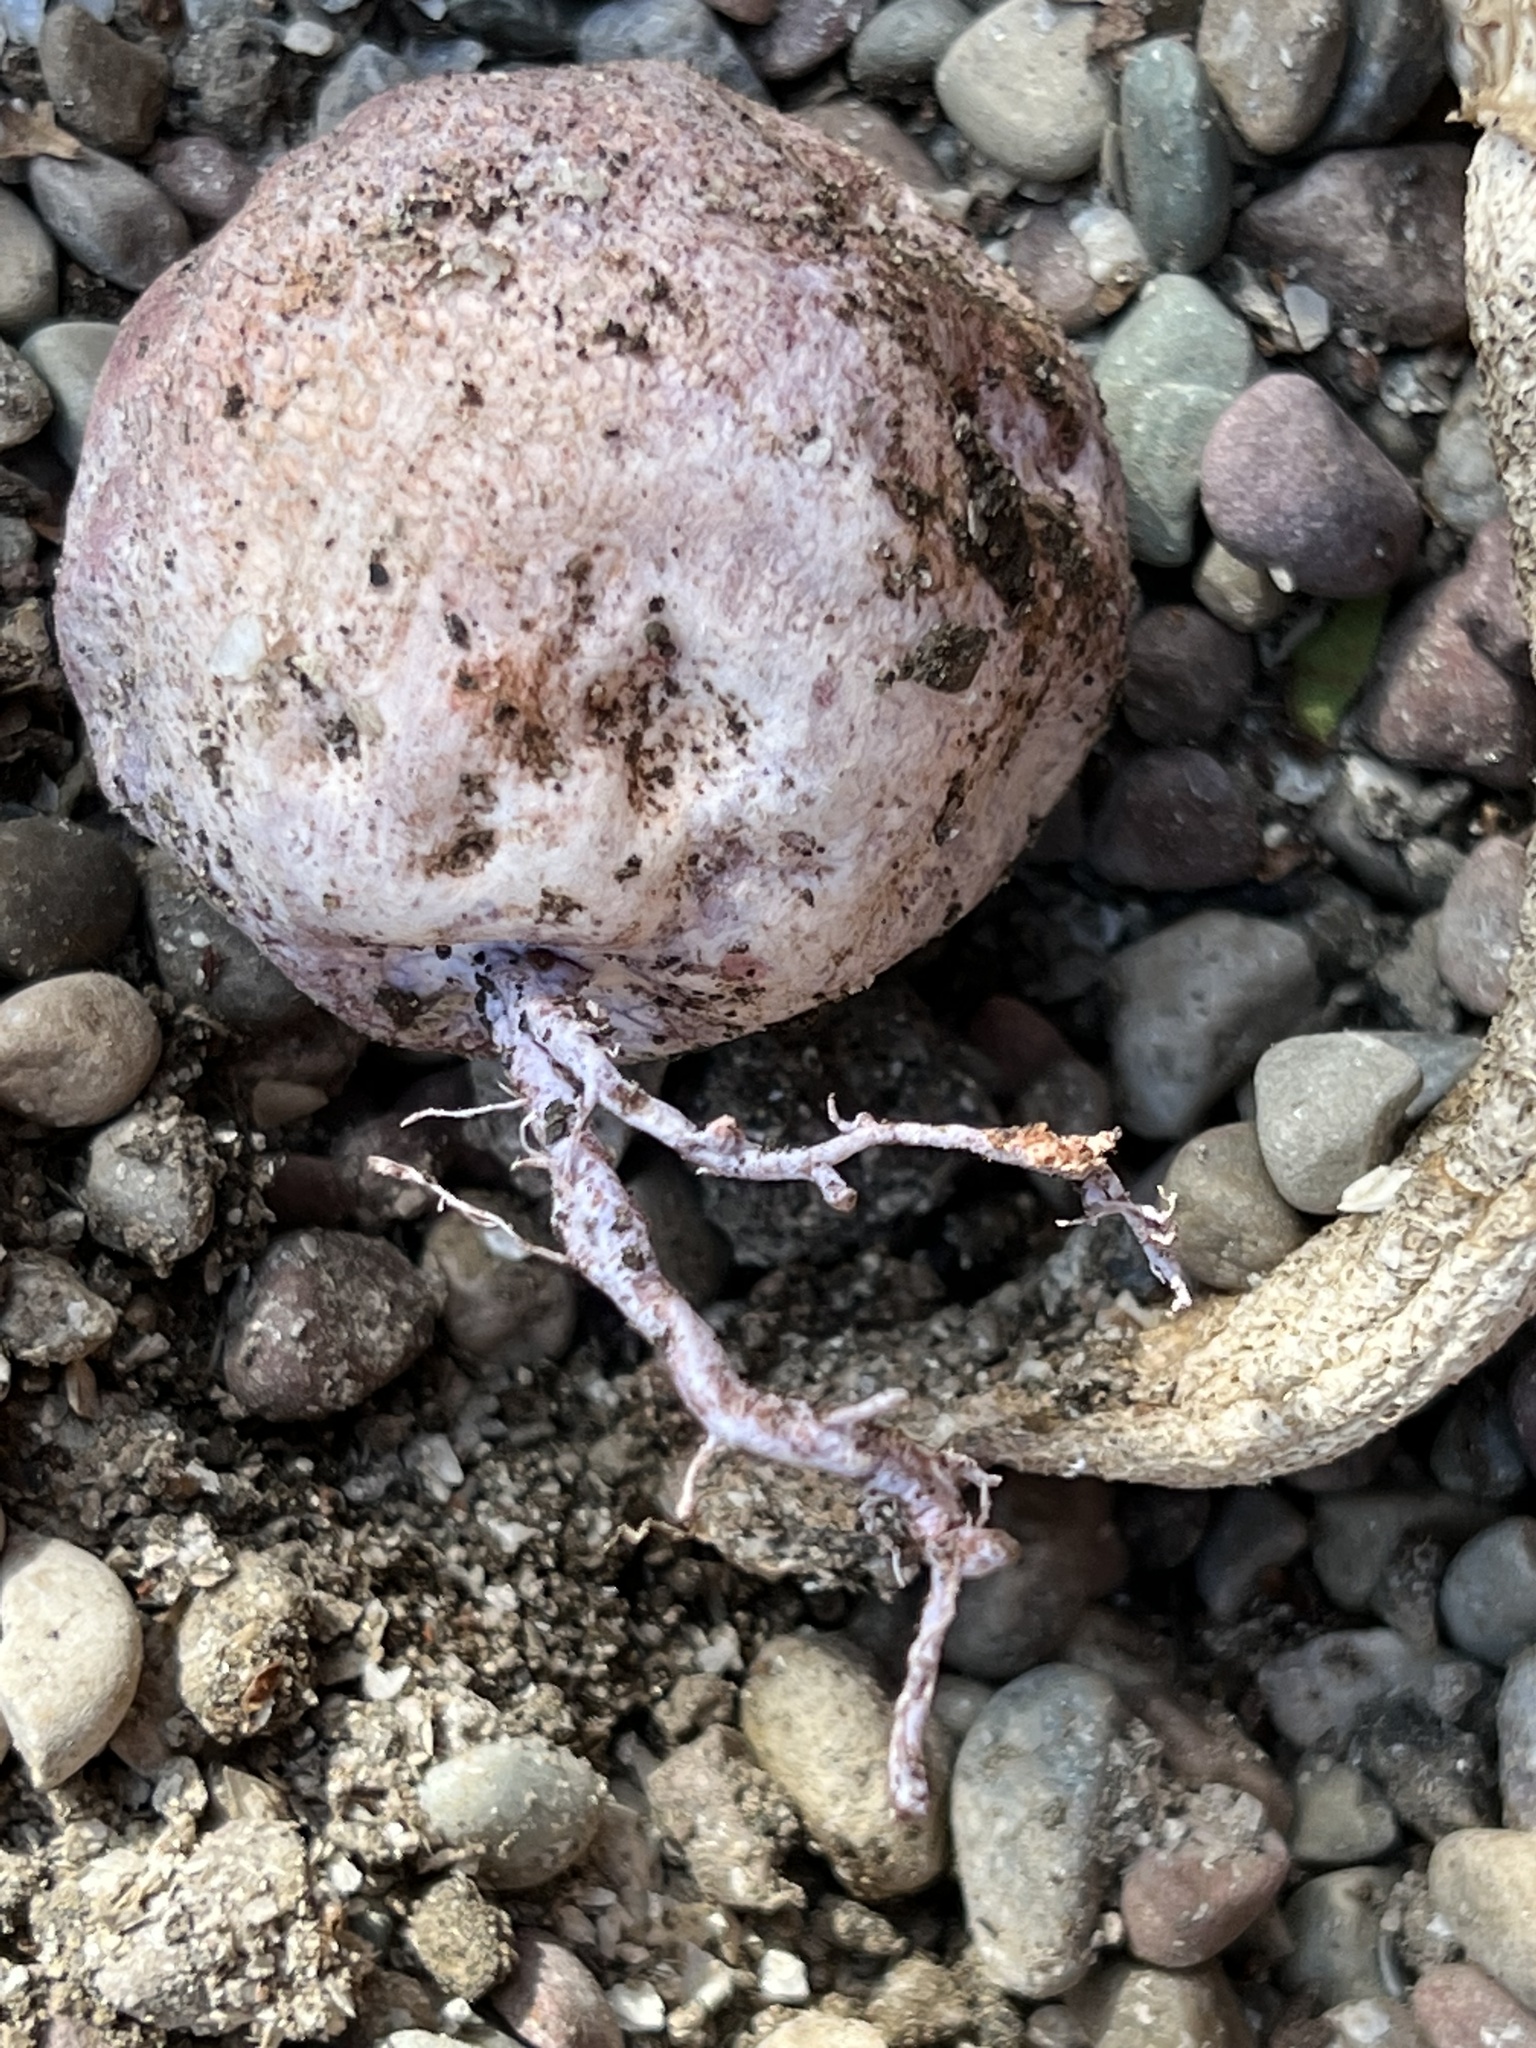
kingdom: Fungi
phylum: Basidiomycota
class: Agaricomycetes
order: Phallales
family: Phallaceae
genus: Phallus
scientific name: Phallus hadriani
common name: Sand stinkhorn
